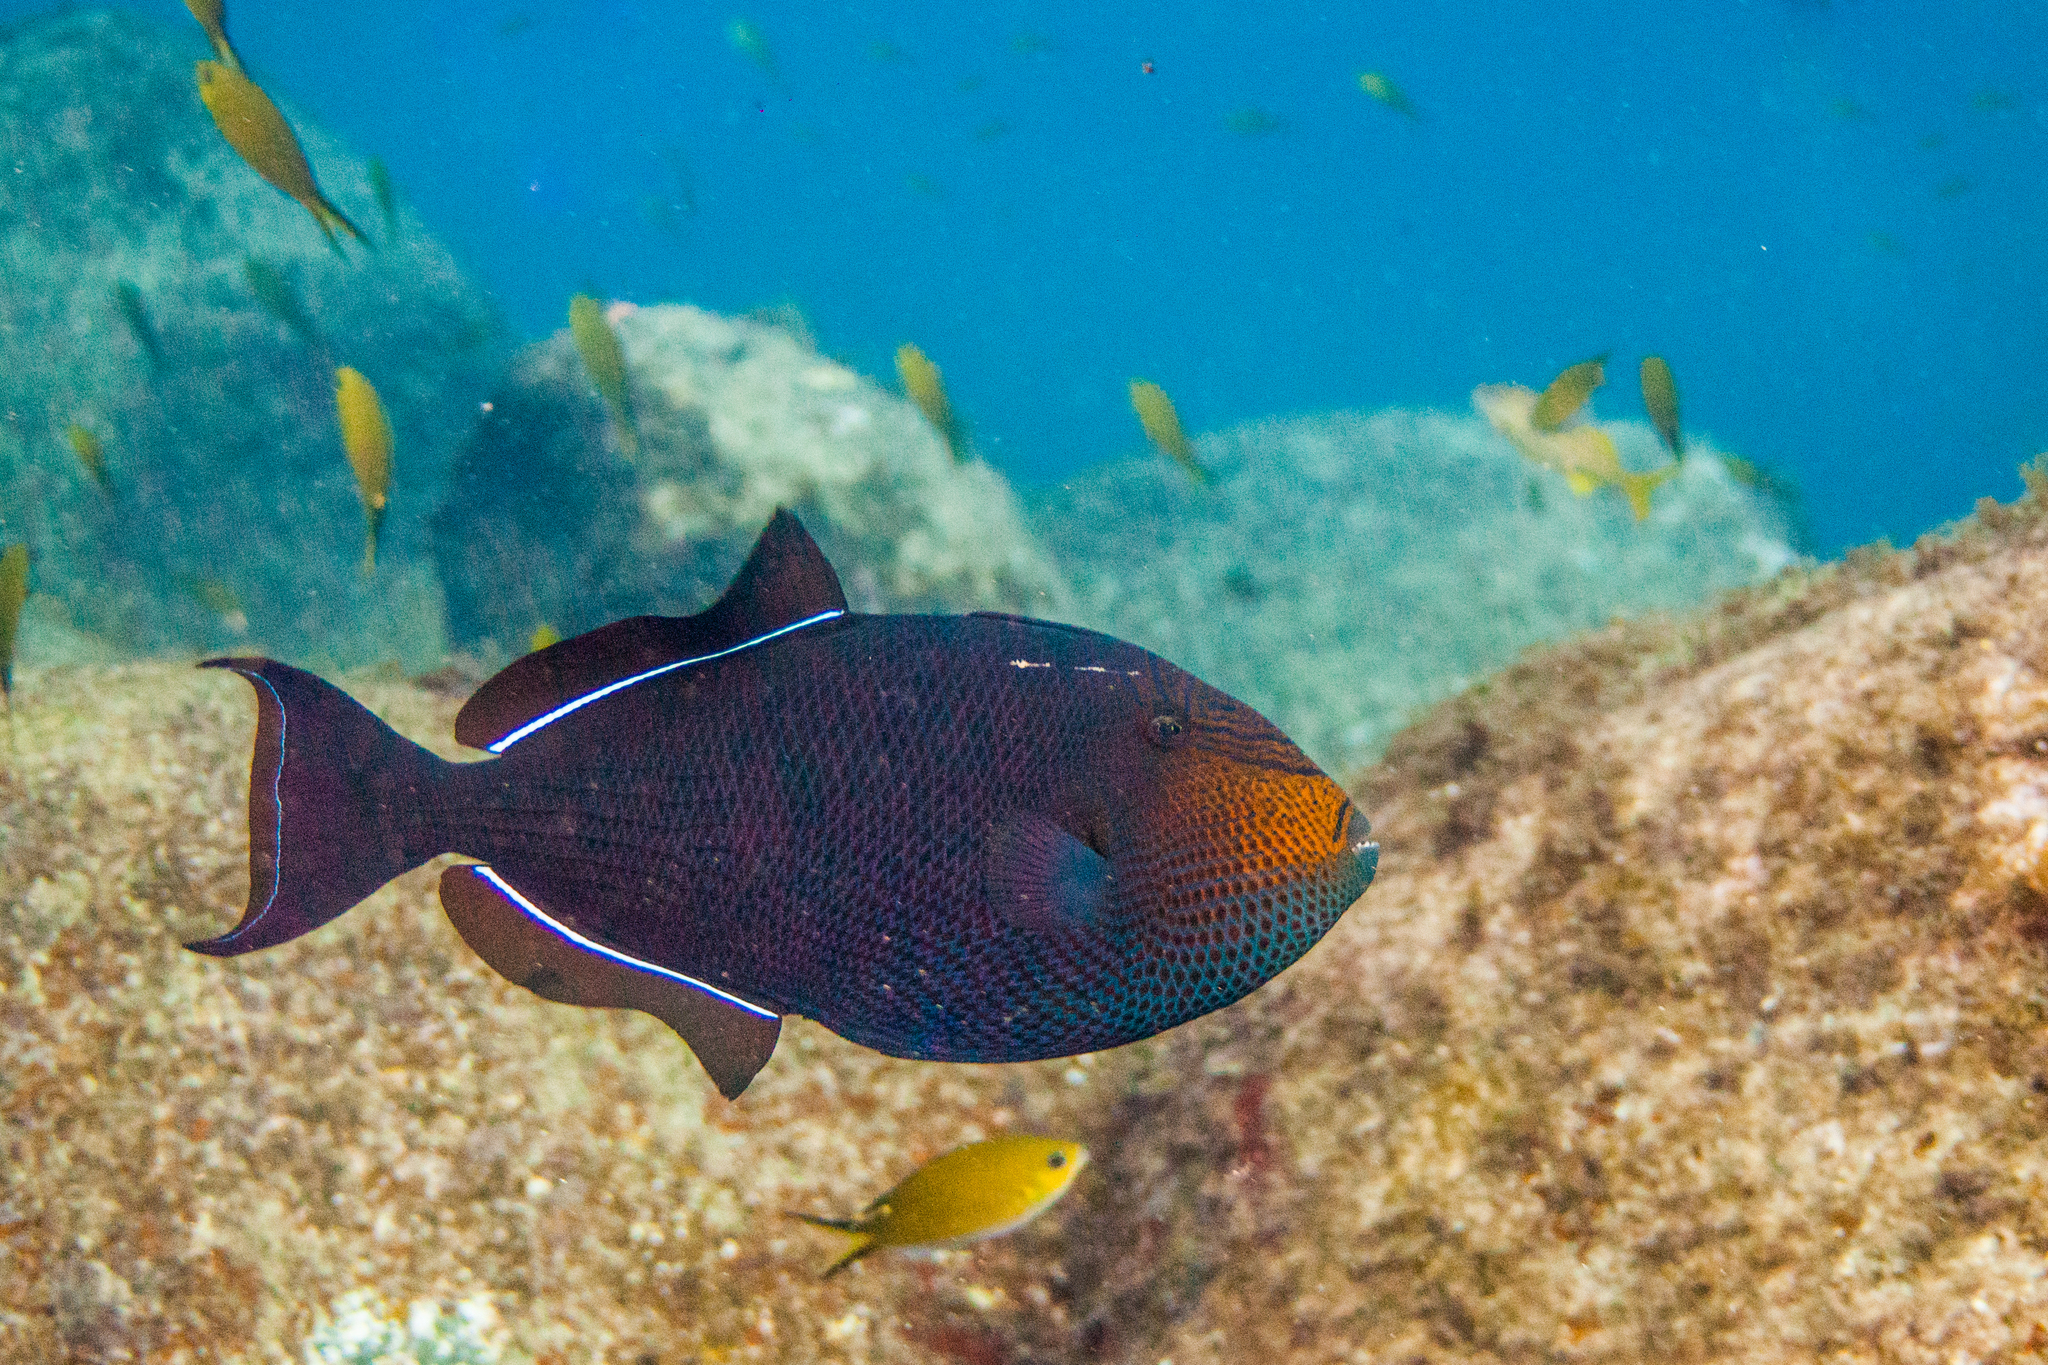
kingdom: Animalia
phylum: Chordata
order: Tetraodontiformes
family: Balistidae
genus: Melichthys
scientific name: Melichthys niger
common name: Black durgon
